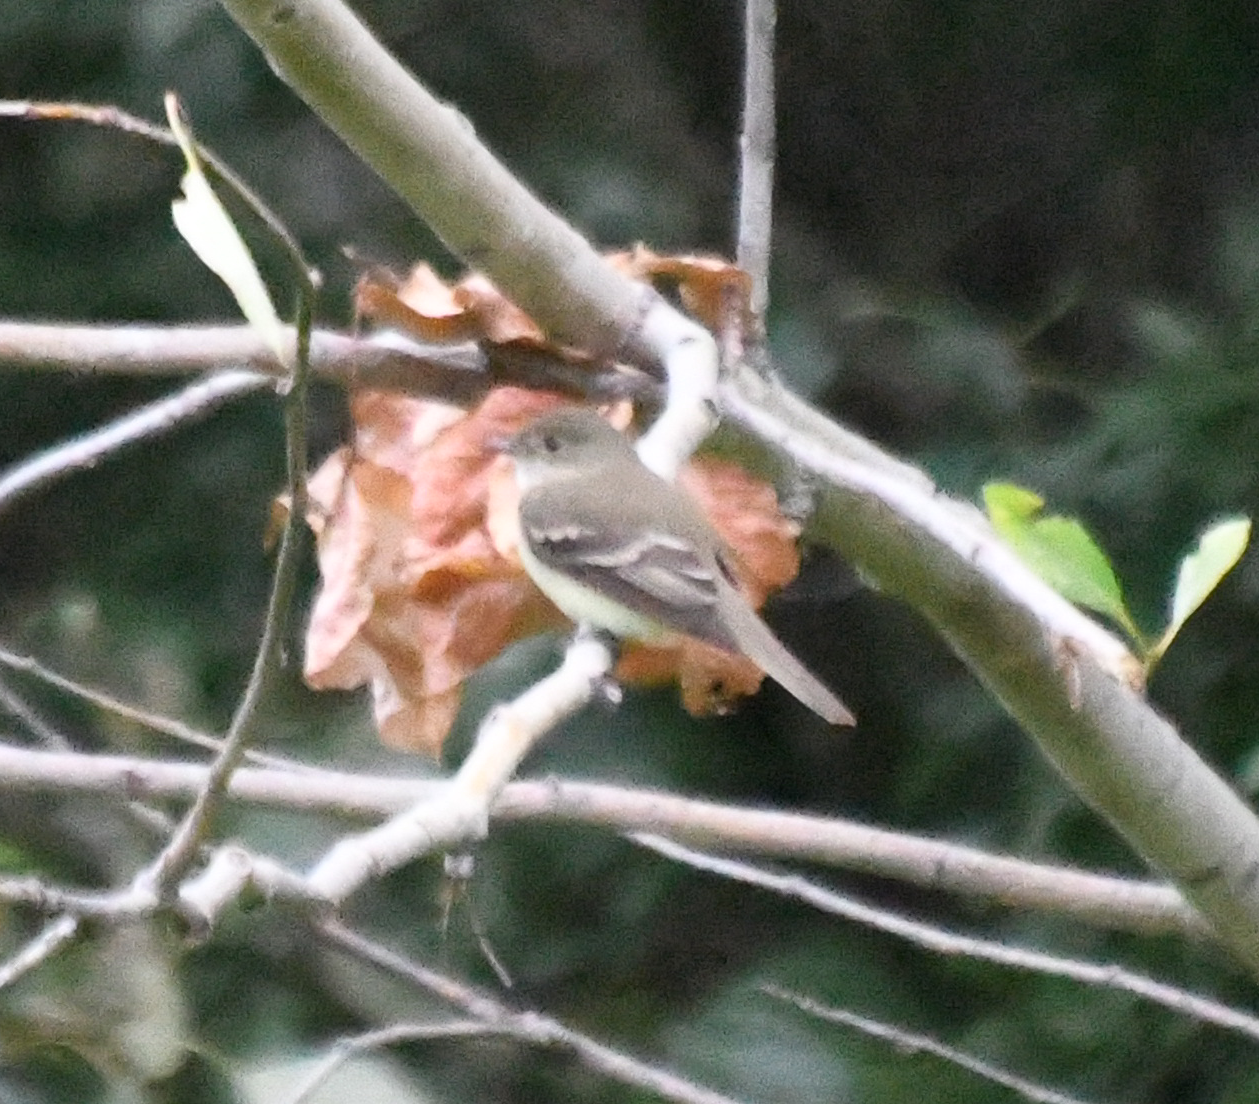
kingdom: Animalia
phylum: Chordata
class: Aves
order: Passeriformes
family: Tyrannidae
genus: Empidonax
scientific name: Empidonax alnorum
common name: Alder flycatcher
